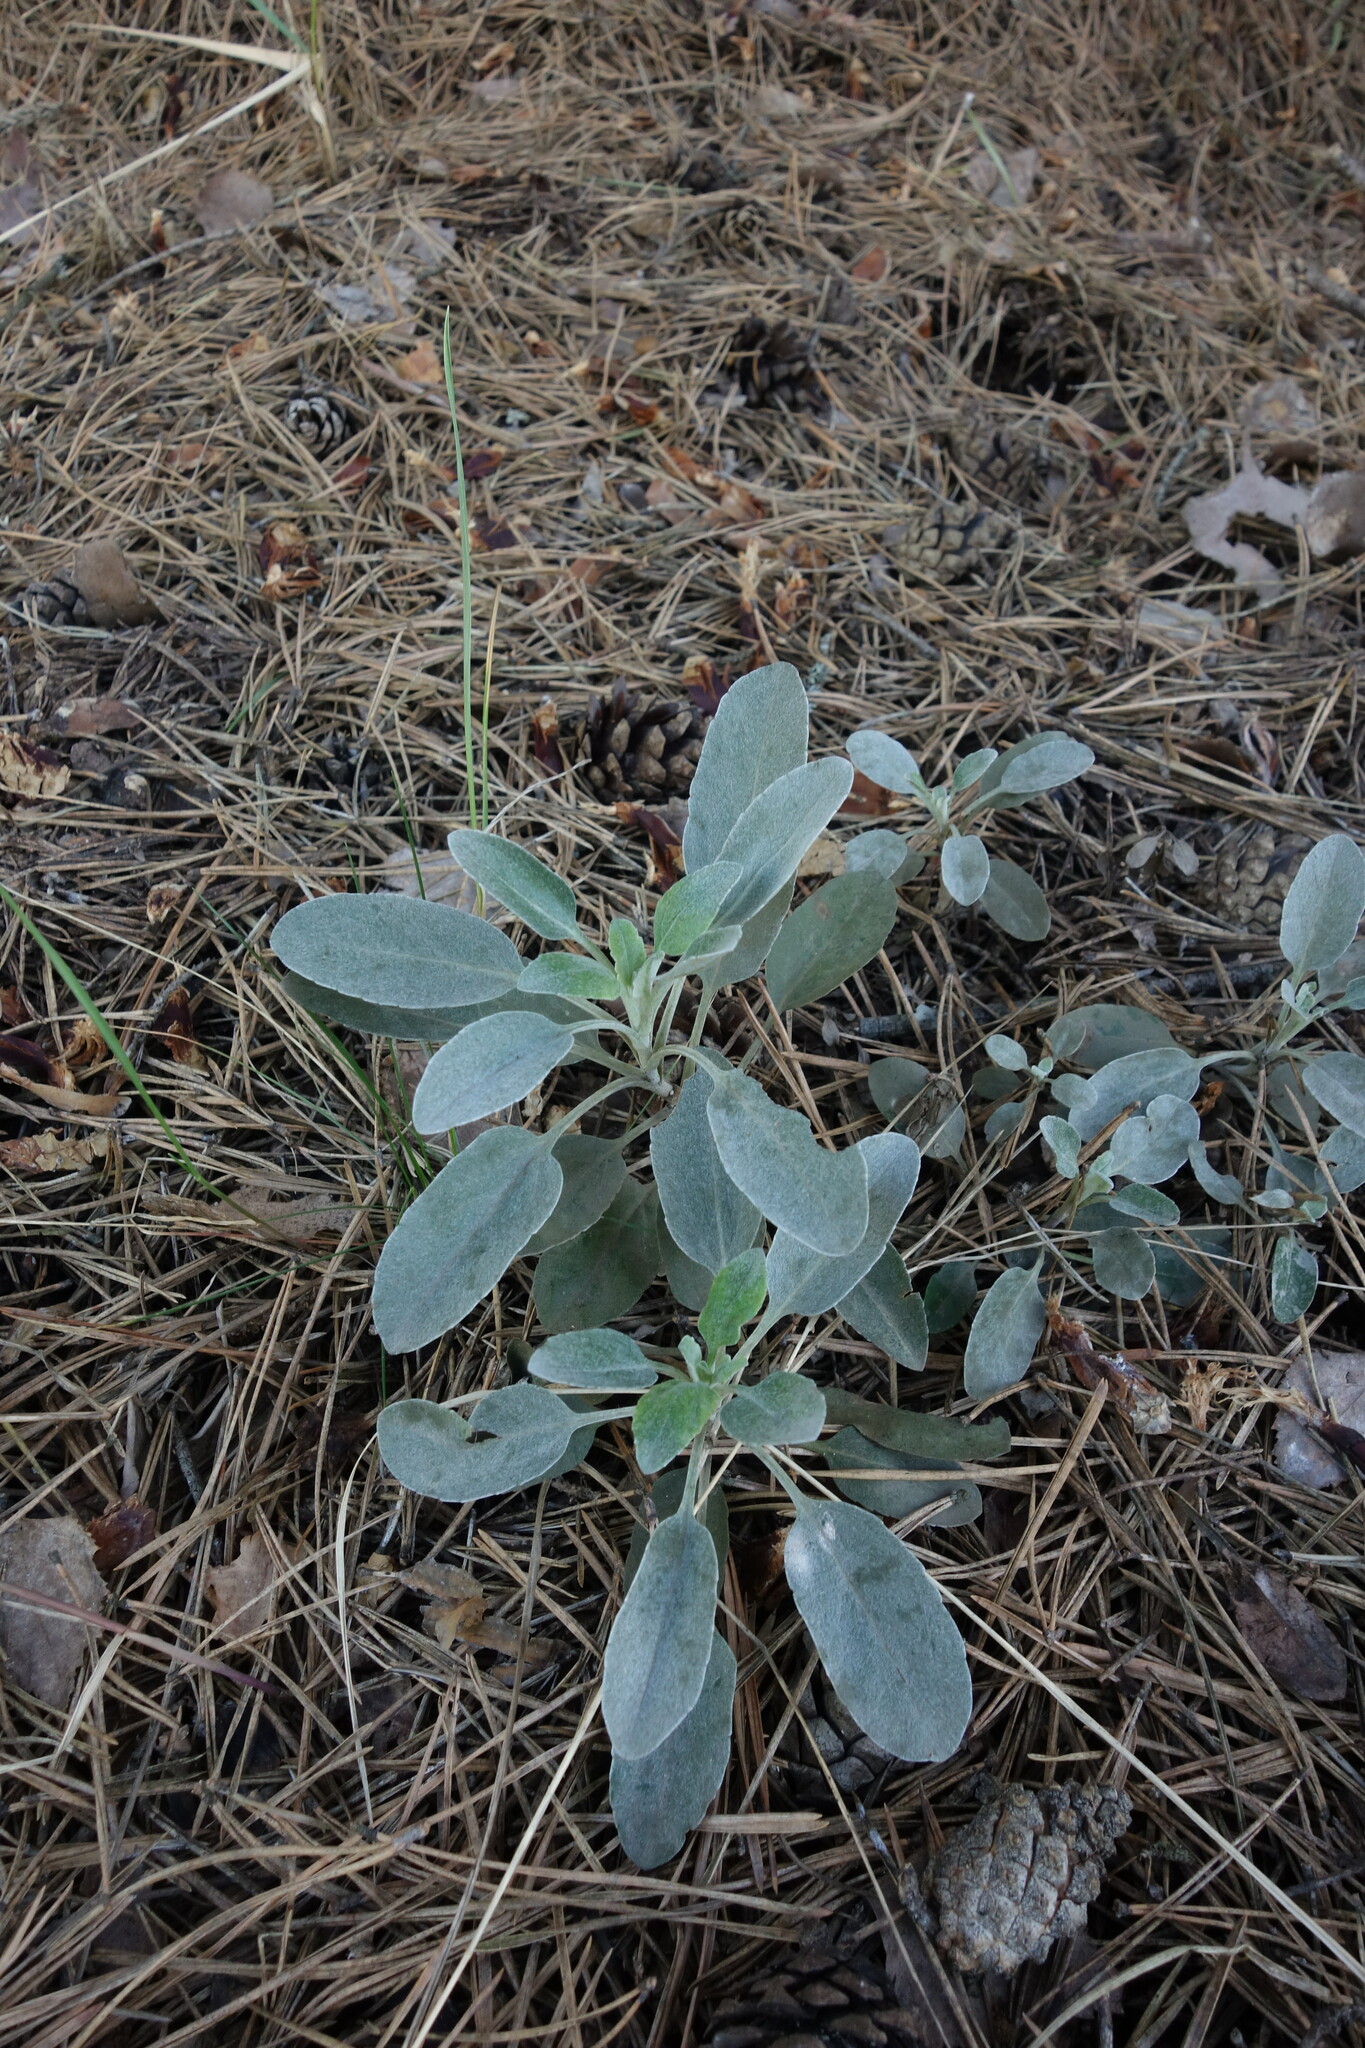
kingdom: Plantae
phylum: Tracheophyta
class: Magnoliopsida
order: Lamiales
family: Plantaginaceae
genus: Veronica
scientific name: Veronica incana
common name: Silver speedwell
